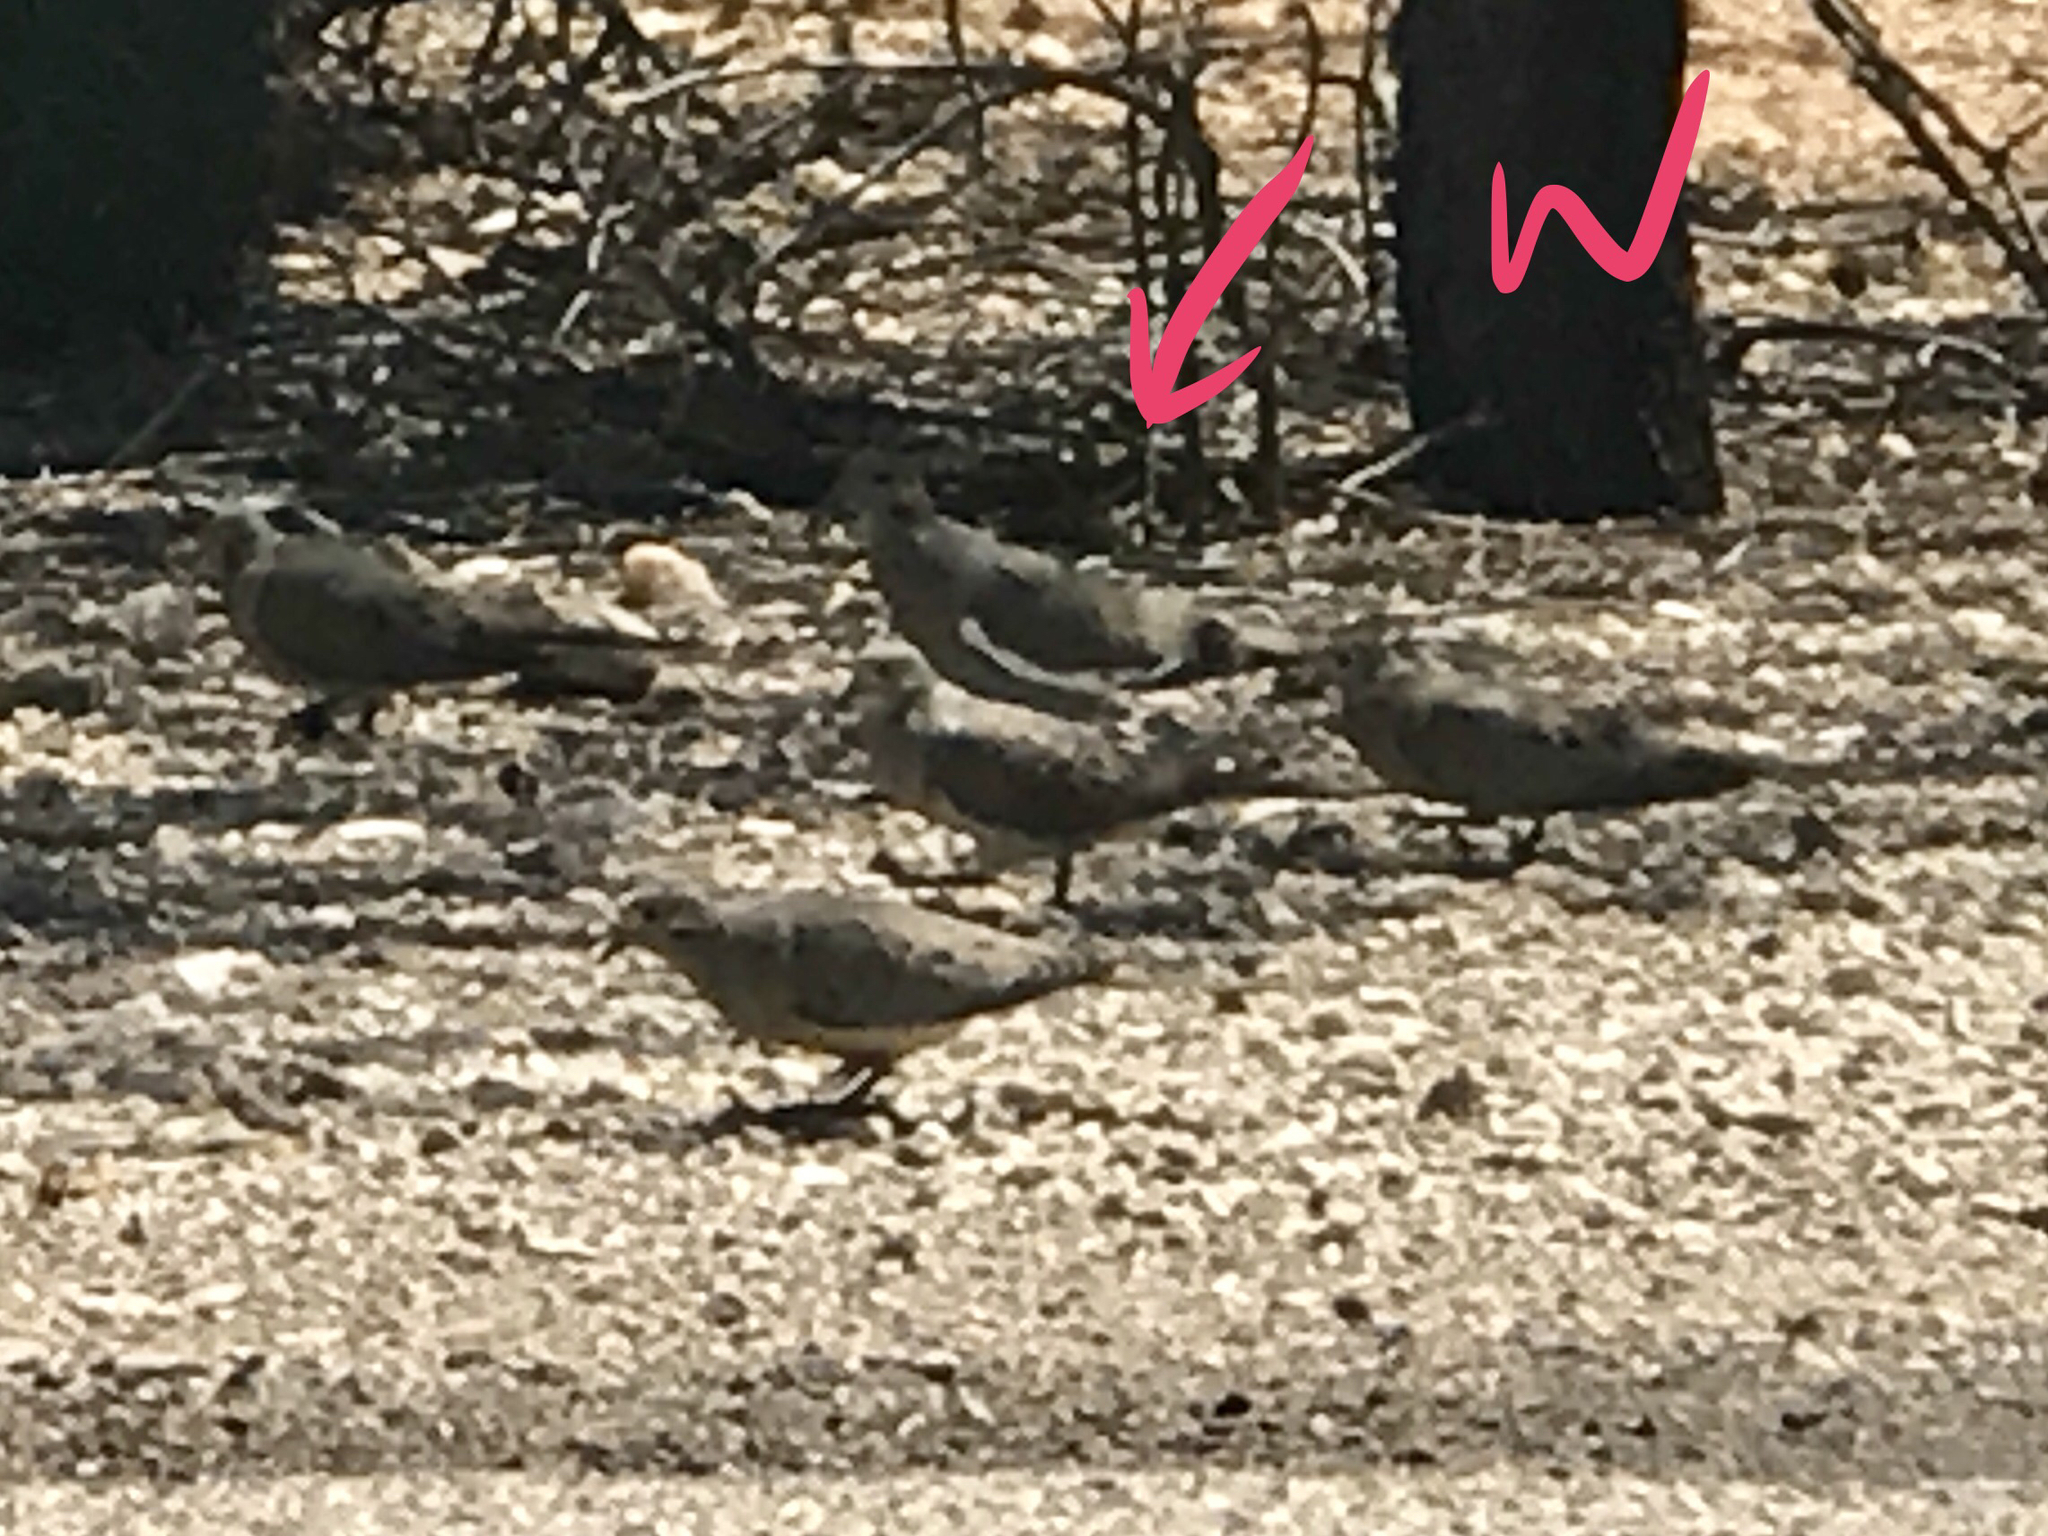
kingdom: Animalia
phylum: Chordata
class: Aves
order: Columbiformes
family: Columbidae
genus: Zenaida
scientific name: Zenaida macroura
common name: Mourning dove
